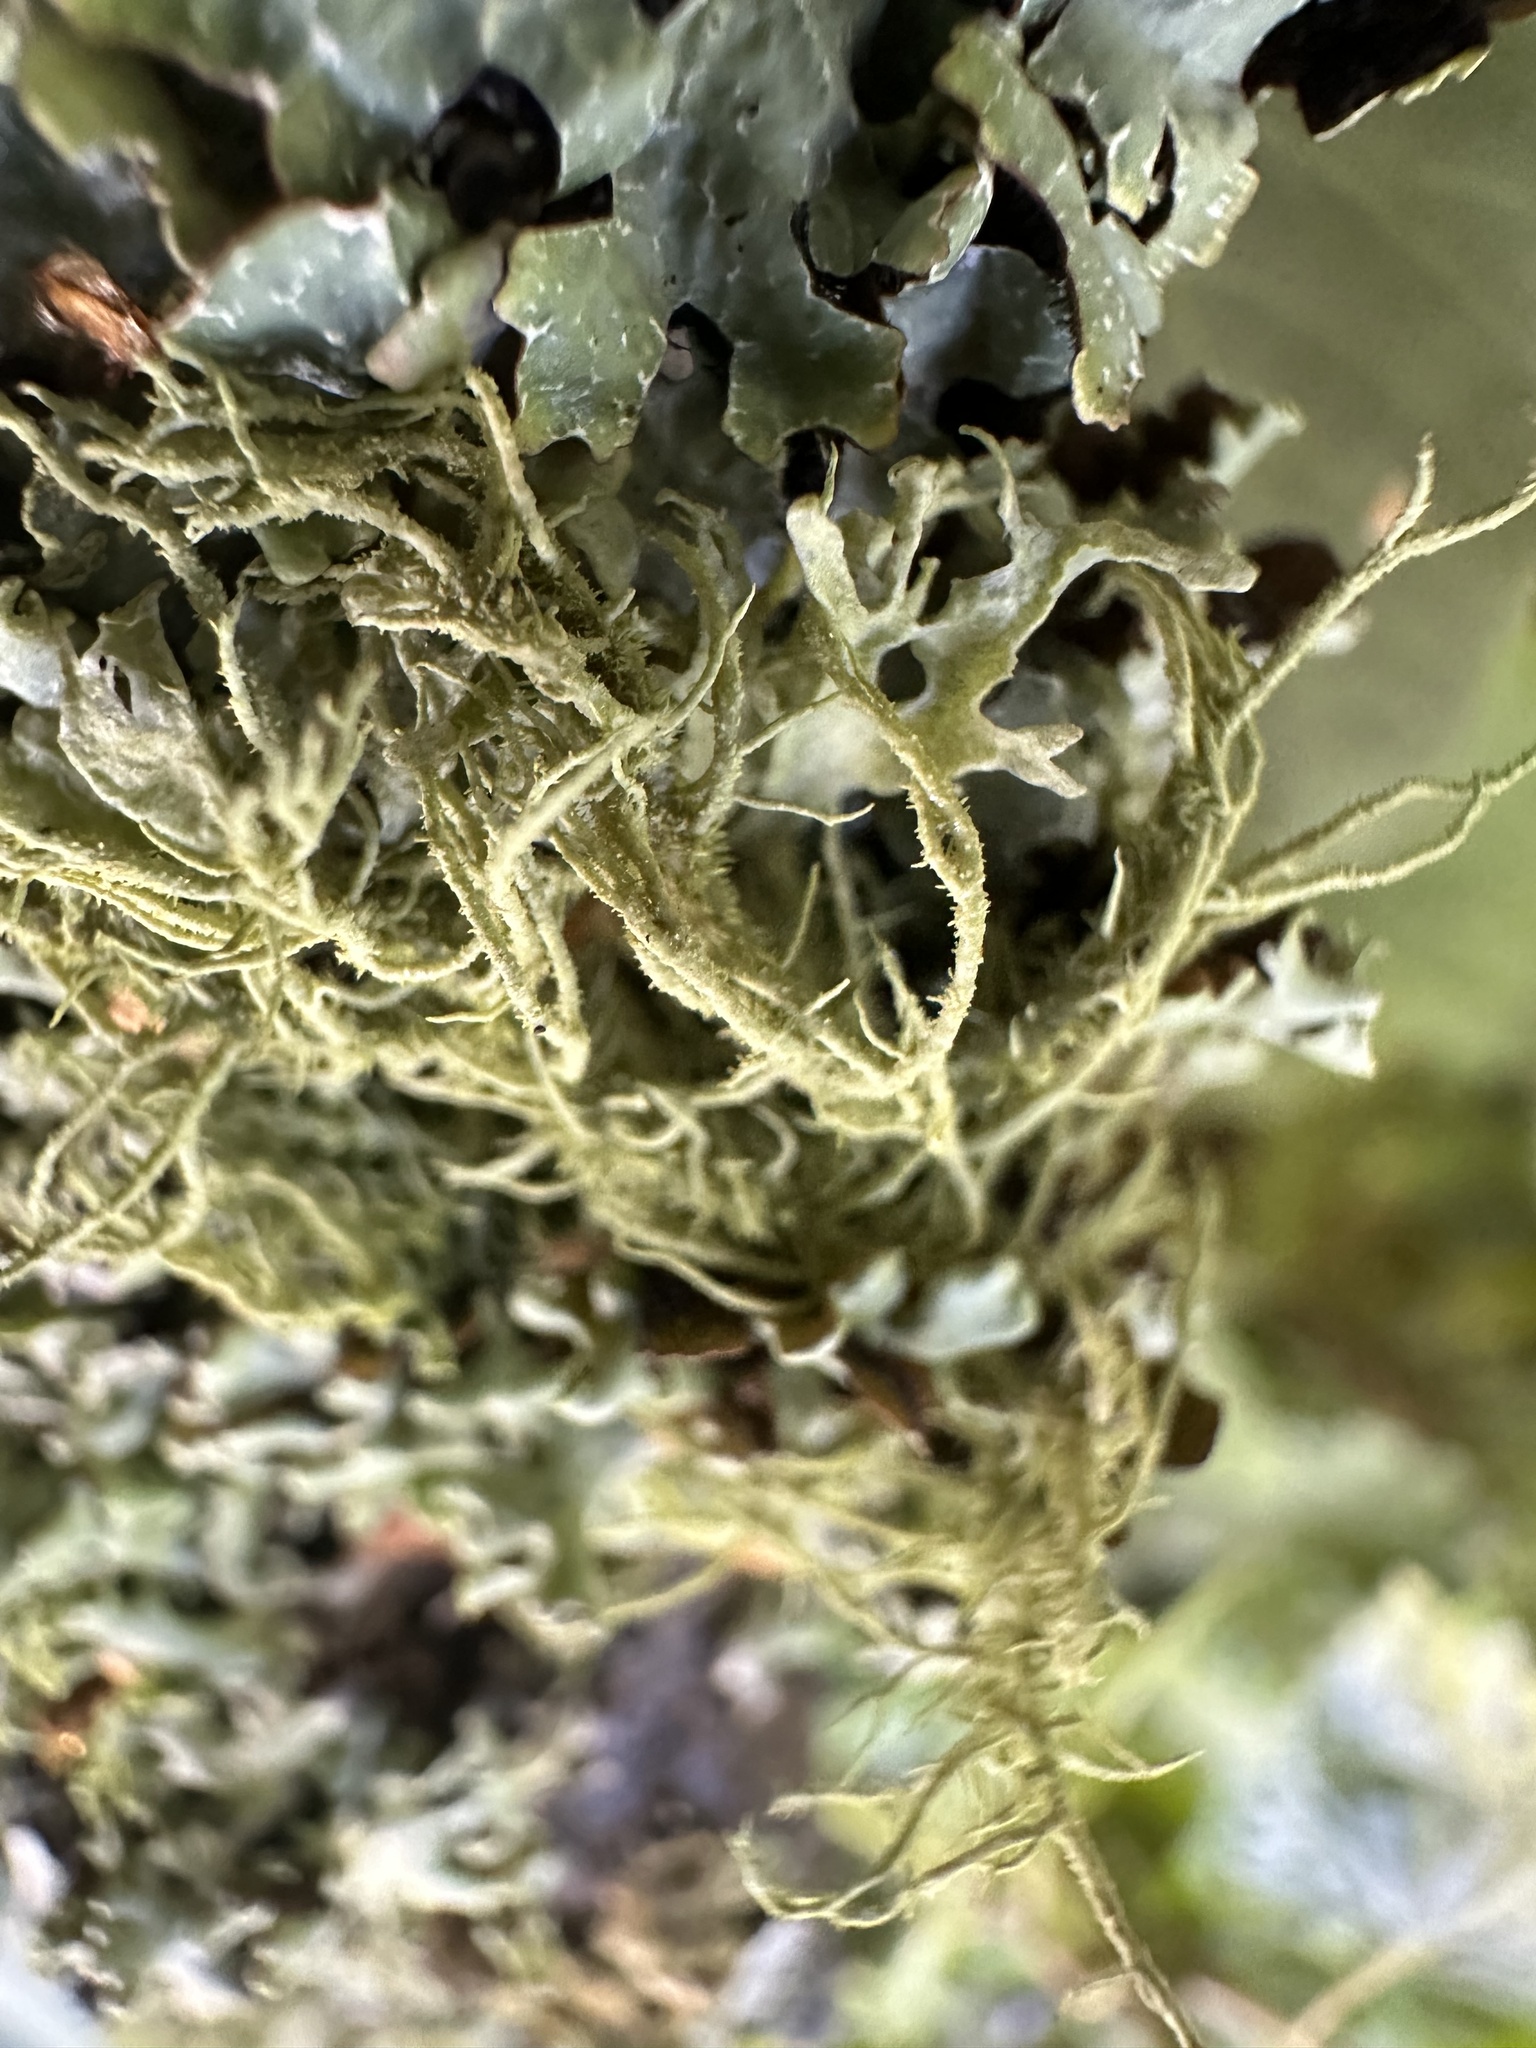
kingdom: Fungi
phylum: Ascomycota
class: Lecanoromycetes
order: Lecanorales
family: Parmeliaceae
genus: Usnea
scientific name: Usnea hirta
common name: Bristly beard lichen
